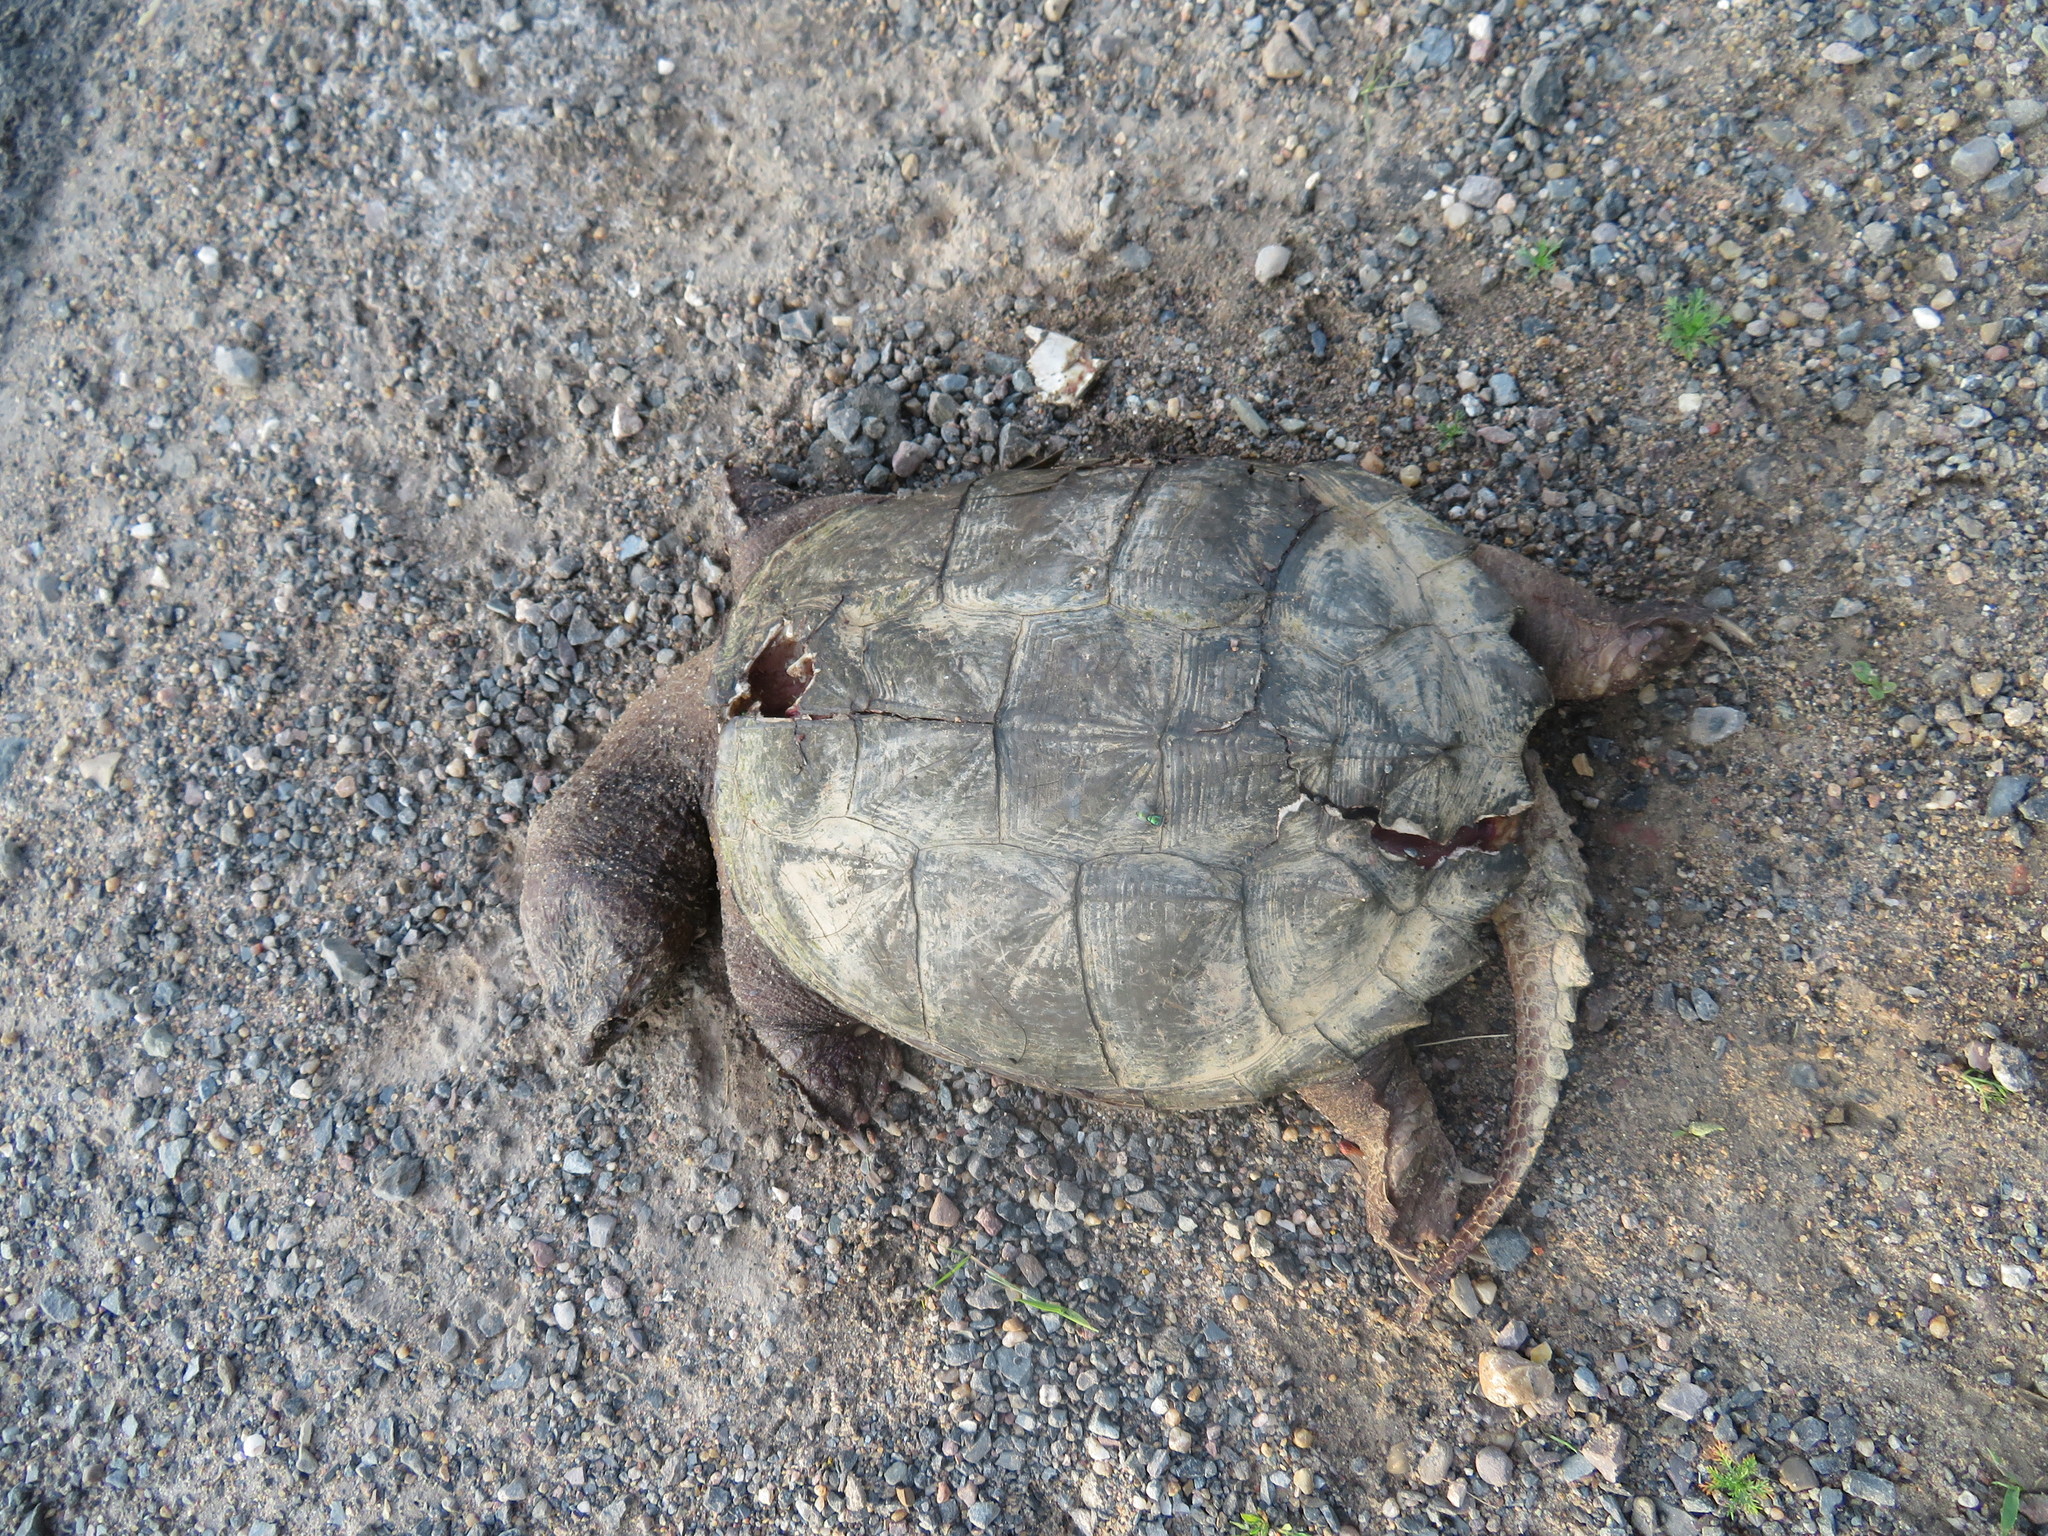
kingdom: Animalia
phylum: Chordata
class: Testudines
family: Chelydridae
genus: Chelydra
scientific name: Chelydra serpentina
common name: Common snapping turtle
